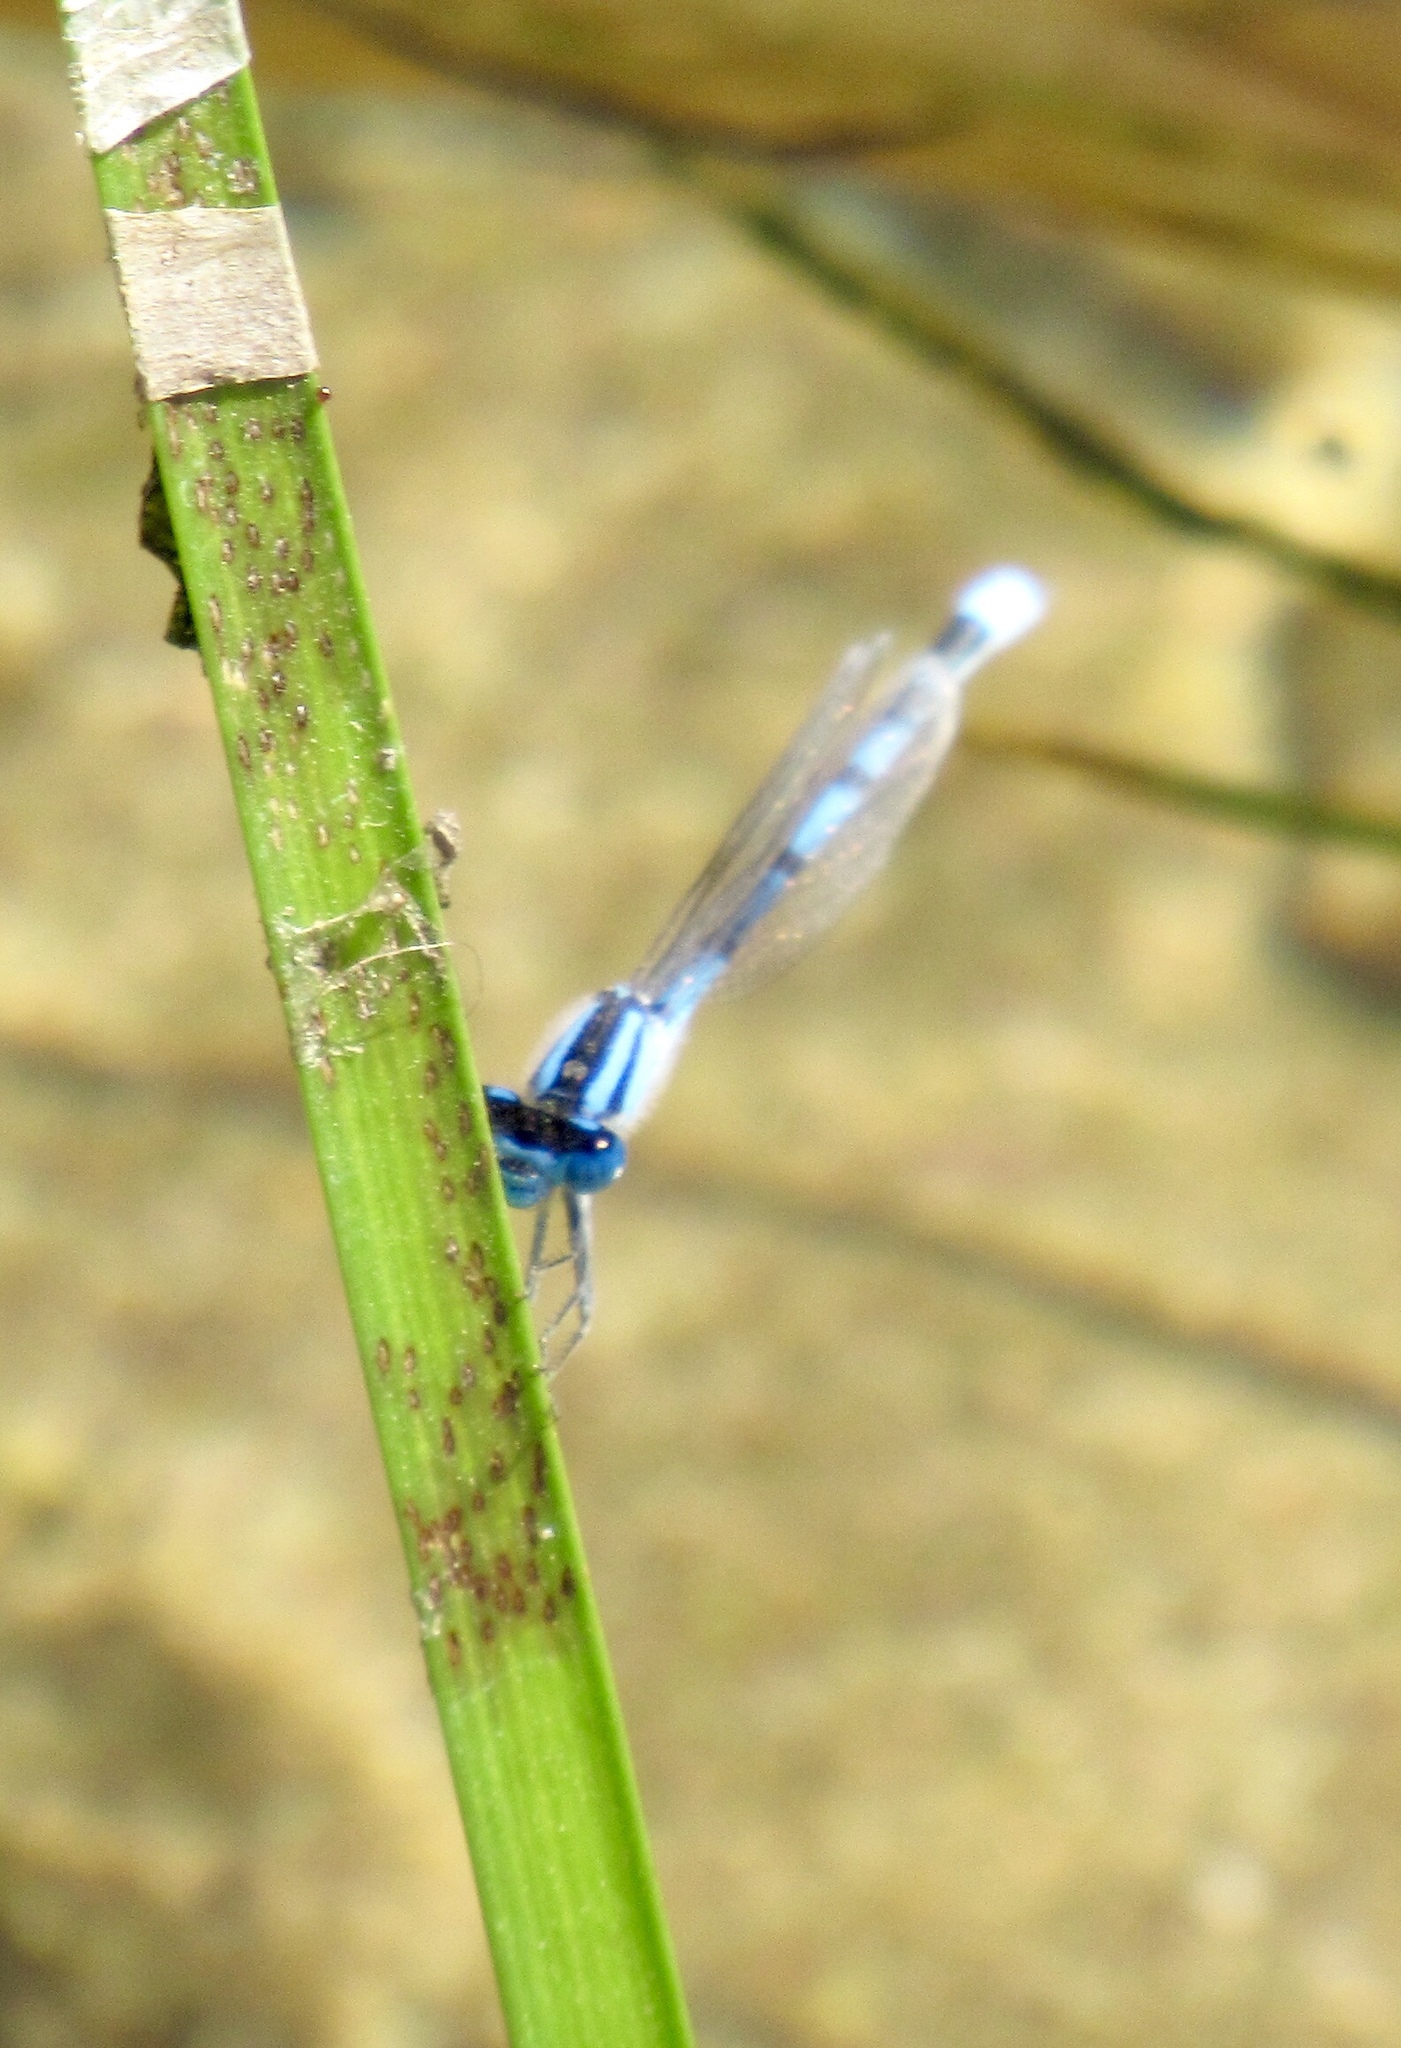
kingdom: Animalia
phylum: Arthropoda
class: Insecta
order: Odonata
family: Coenagrionidae
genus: Enallagma
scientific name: Enallagma civile
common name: Damselfly
